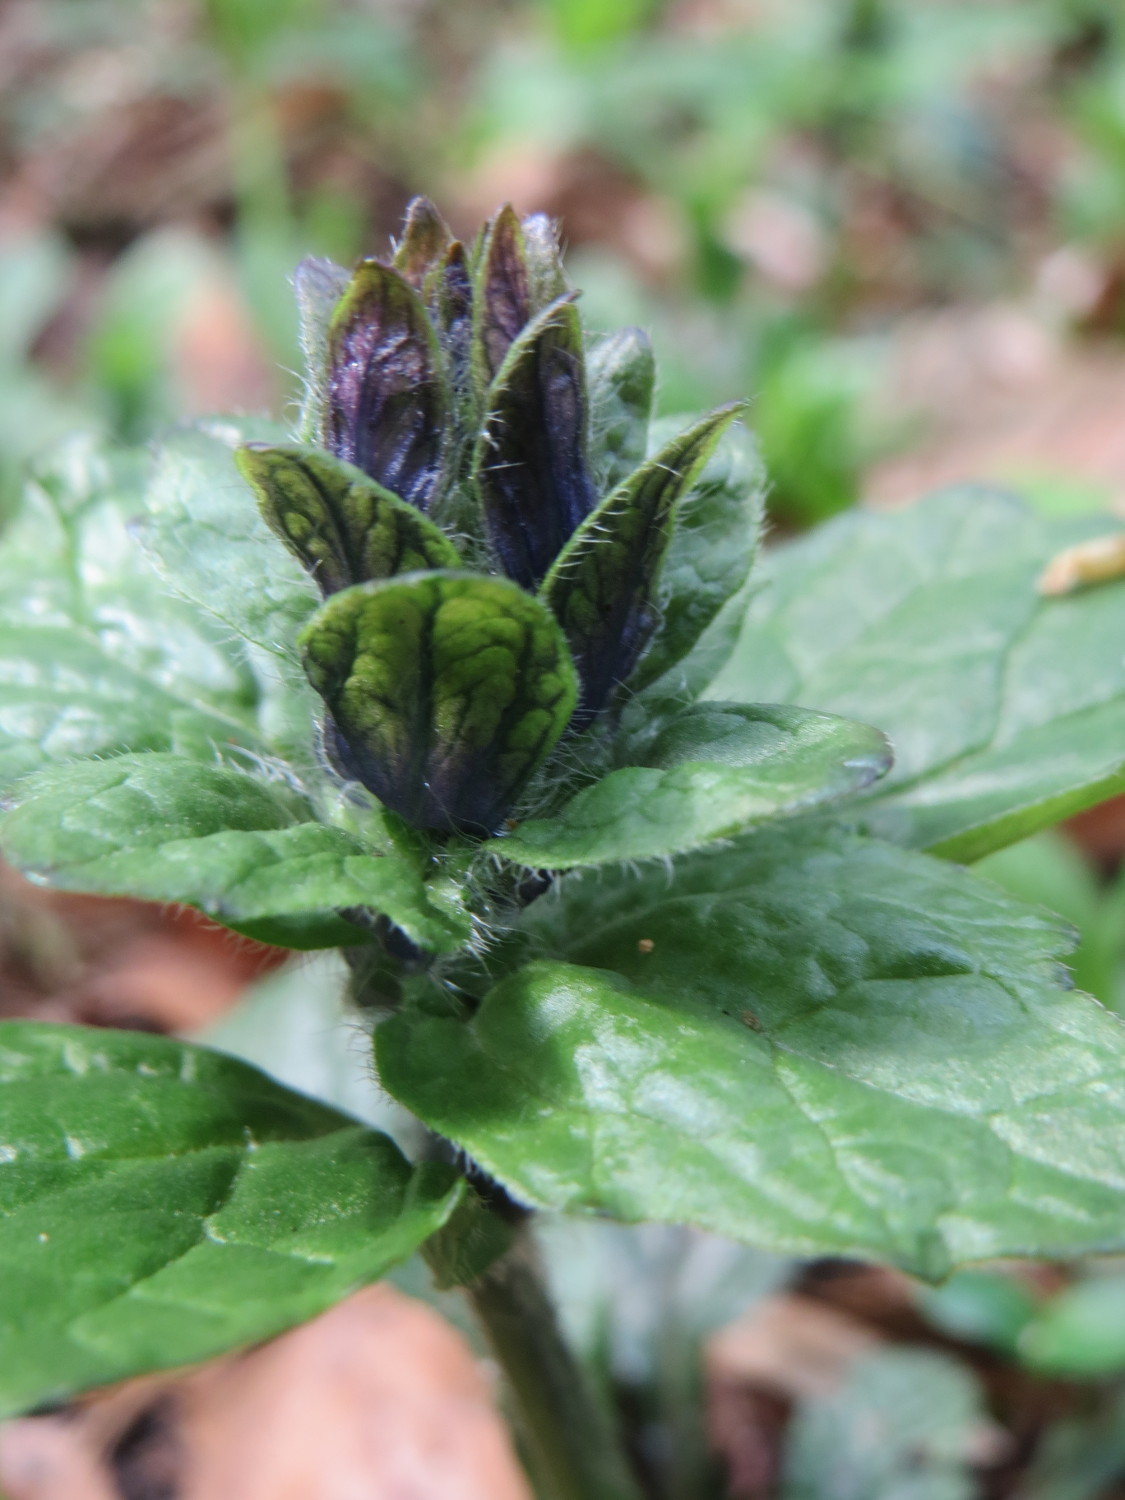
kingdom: Plantae
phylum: Tracheophyta
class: Magnoliopsida
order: Lamiales
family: Lamiaceae
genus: Ajuga
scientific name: Ajuga reptans
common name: Bugle
